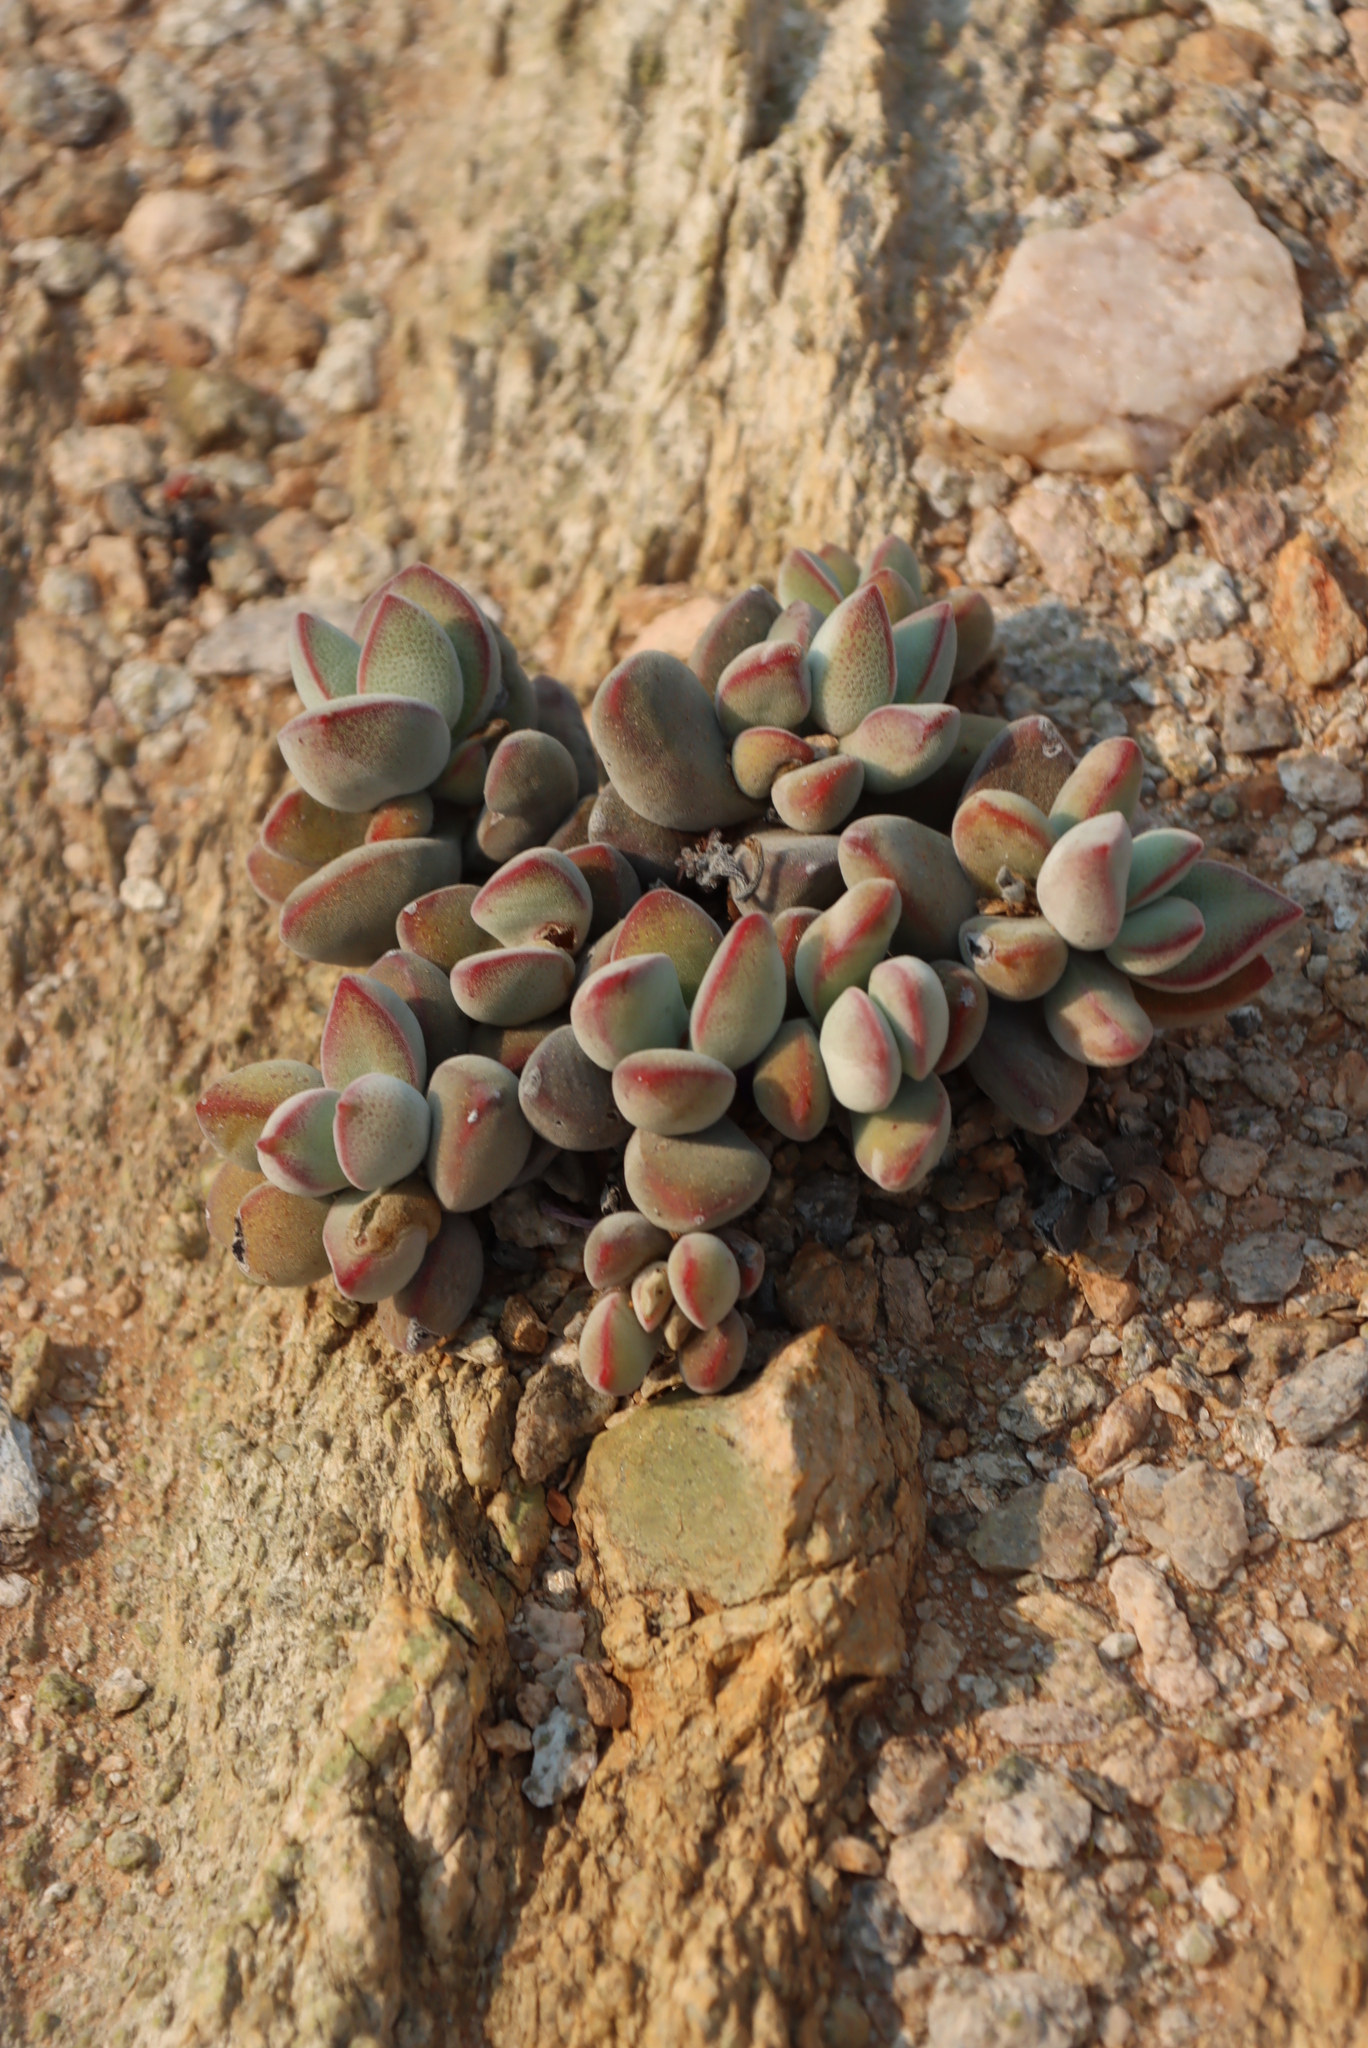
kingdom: Plantae
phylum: Tracheophyta
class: Magnoliopsida
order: Saxifragales
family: Crassulaceae
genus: Crassula
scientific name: Crassula sericea
